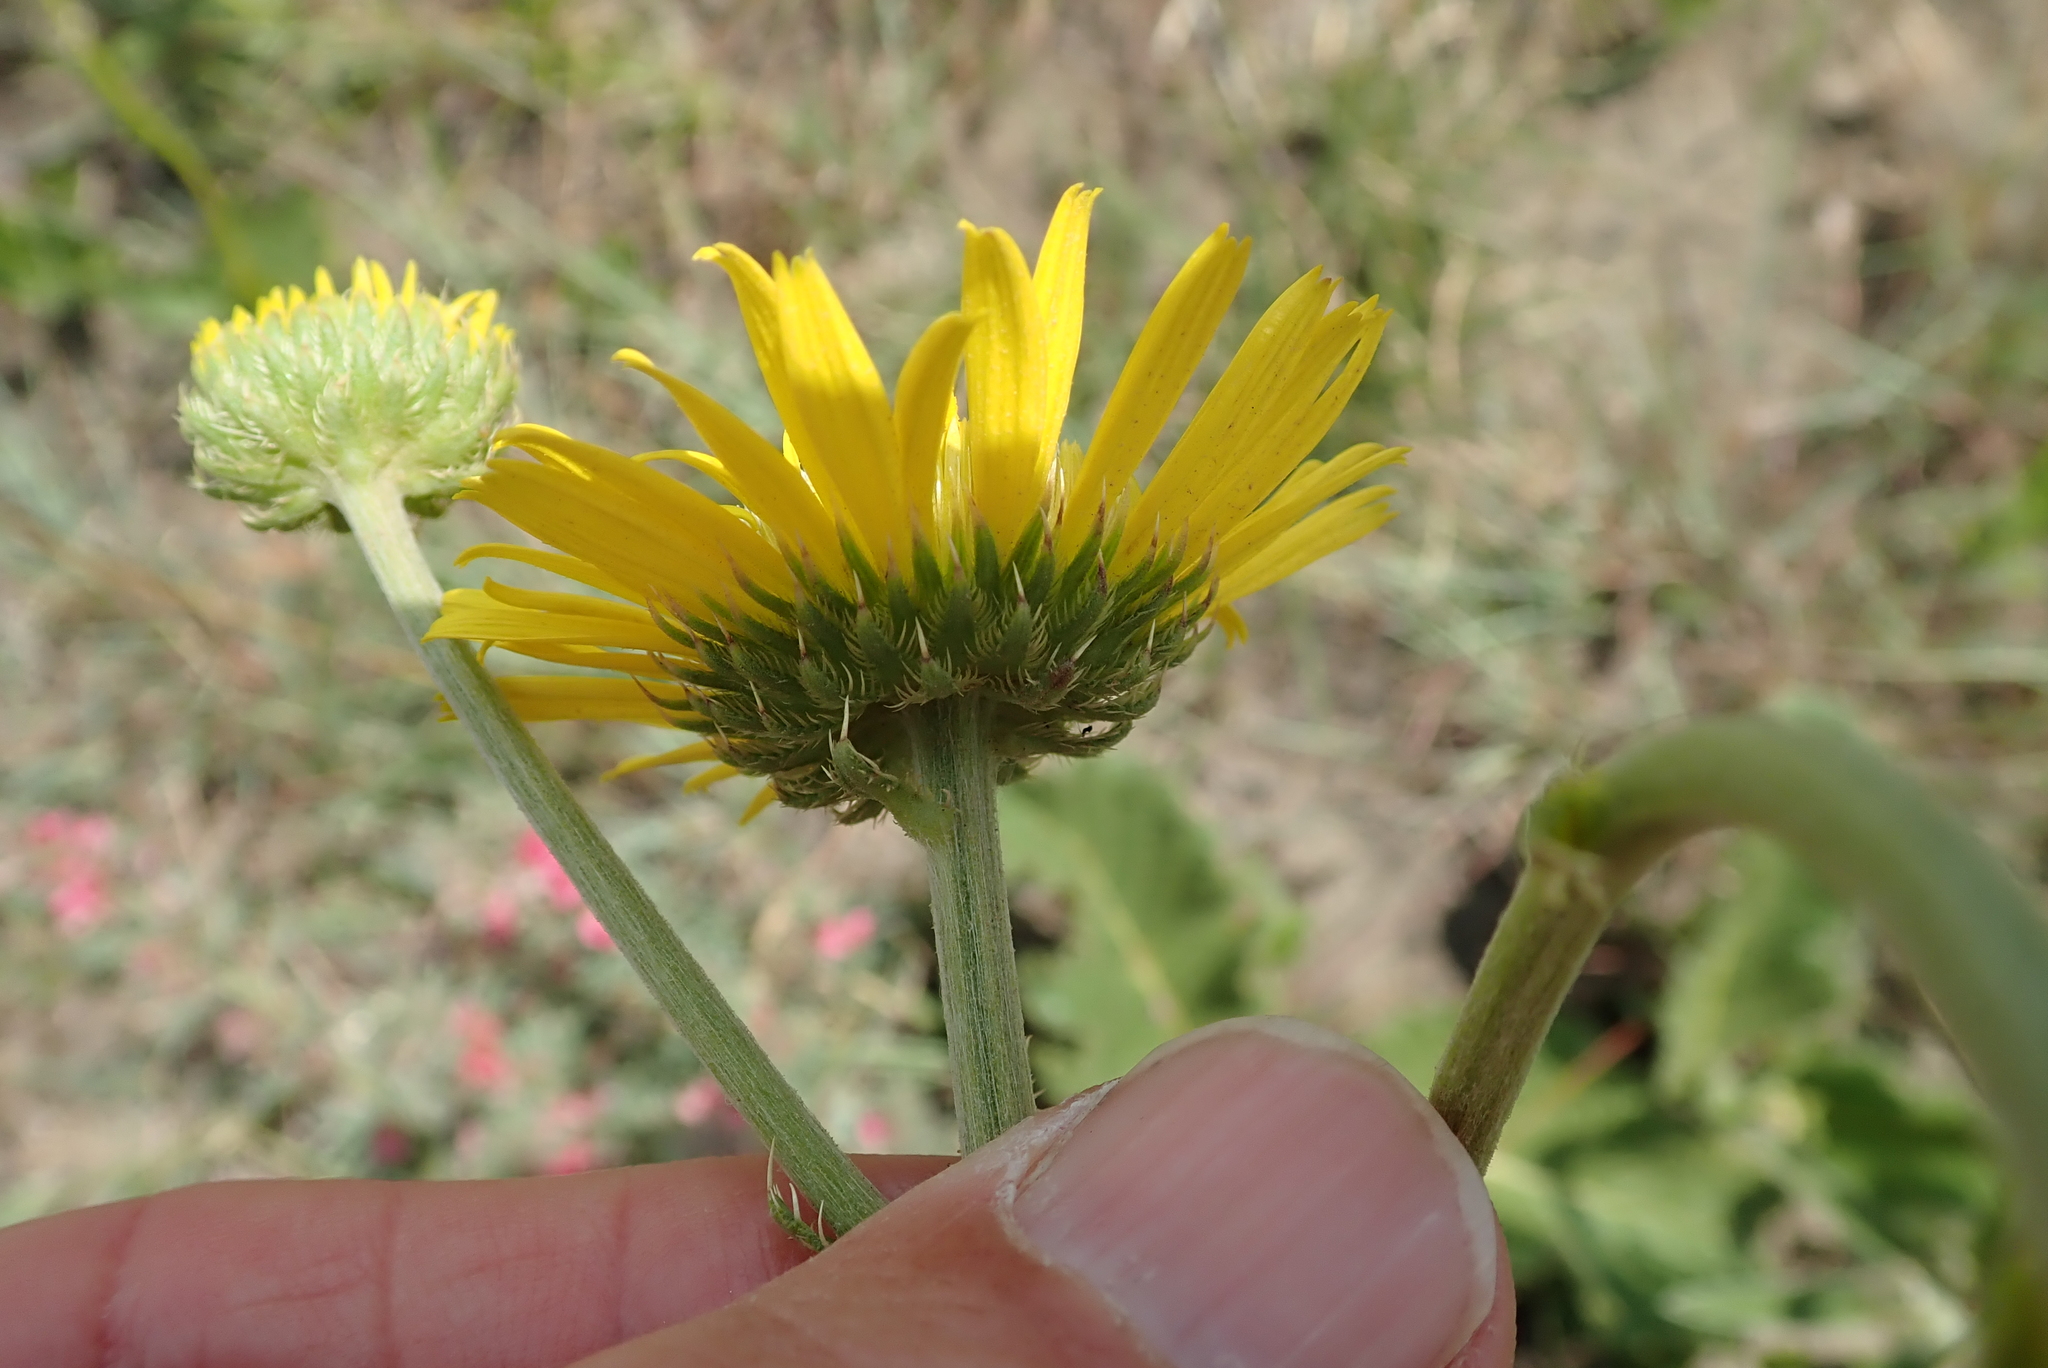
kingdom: Plantae
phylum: Tracheophyta
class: Magnoliopsida
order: Asterales
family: Asteraceae
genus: Berkheya
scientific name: Berkheya setifera
